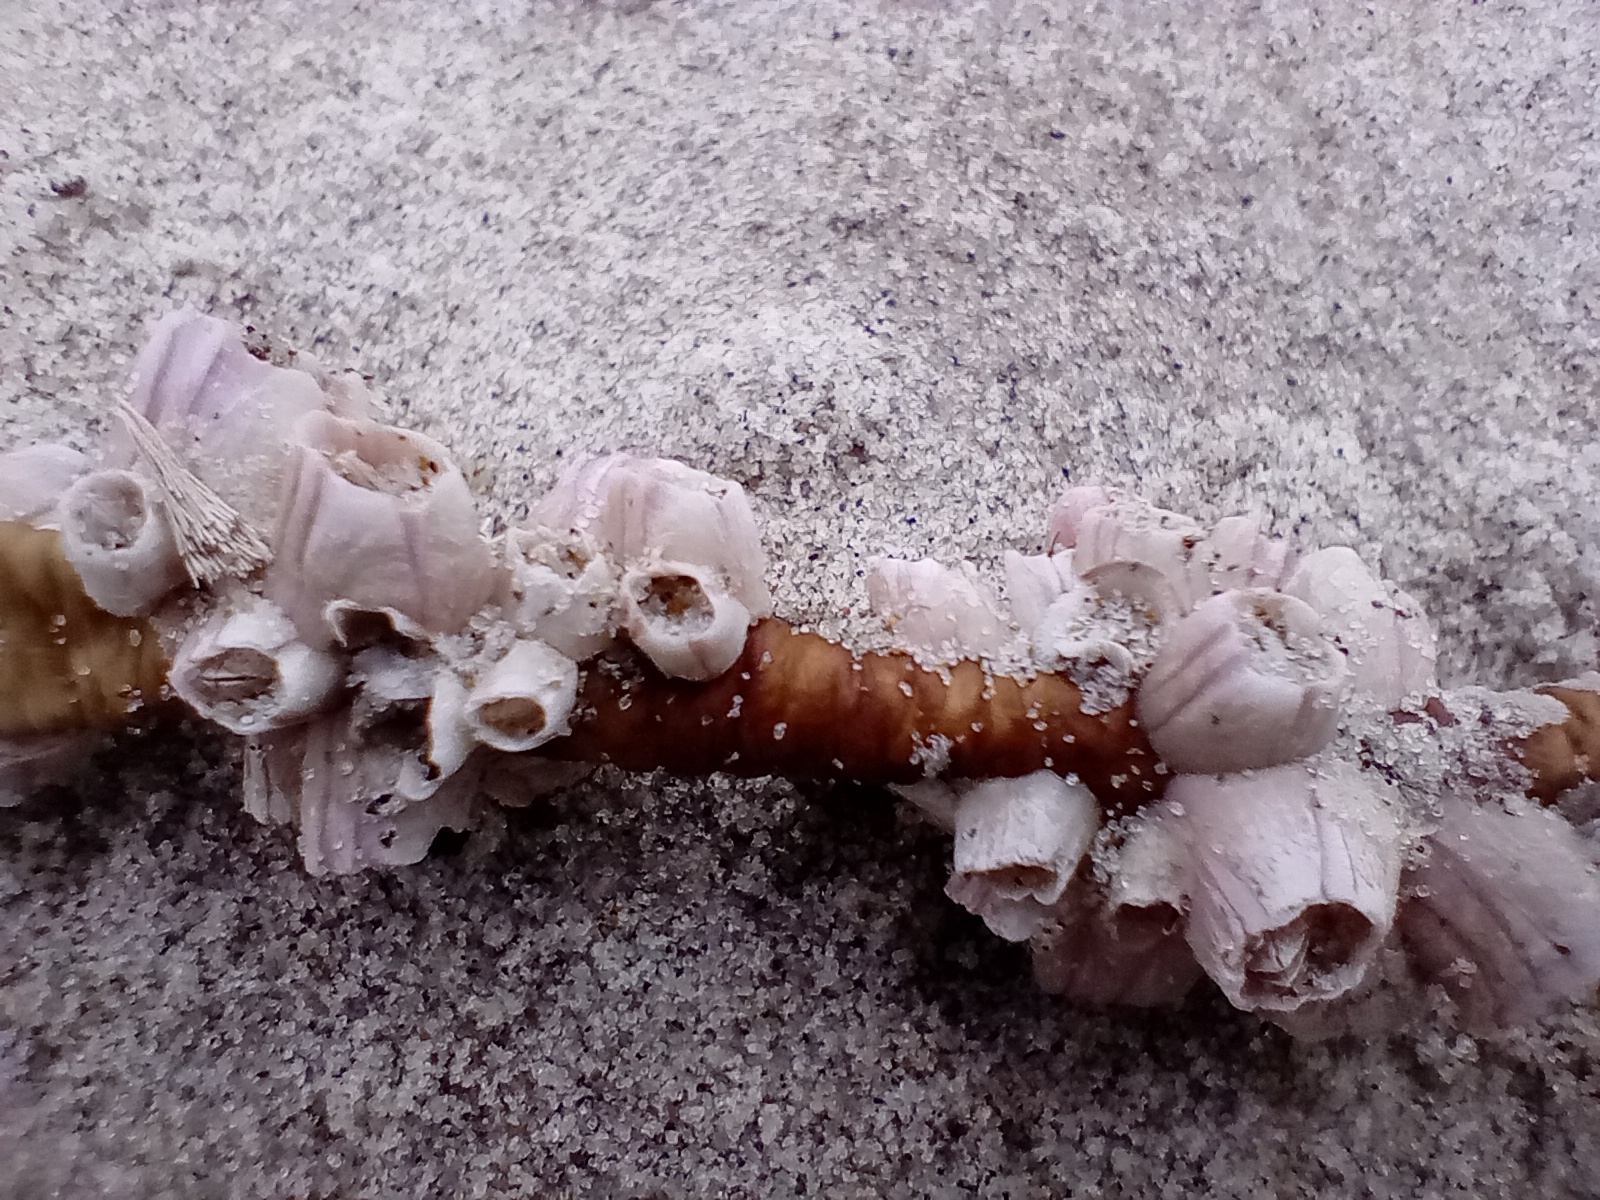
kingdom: Animalia
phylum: Arthropoda
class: Maxillopoda
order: Sessilia
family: Balanidae
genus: Notomegabalanus
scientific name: Notomegabalanus decorus
